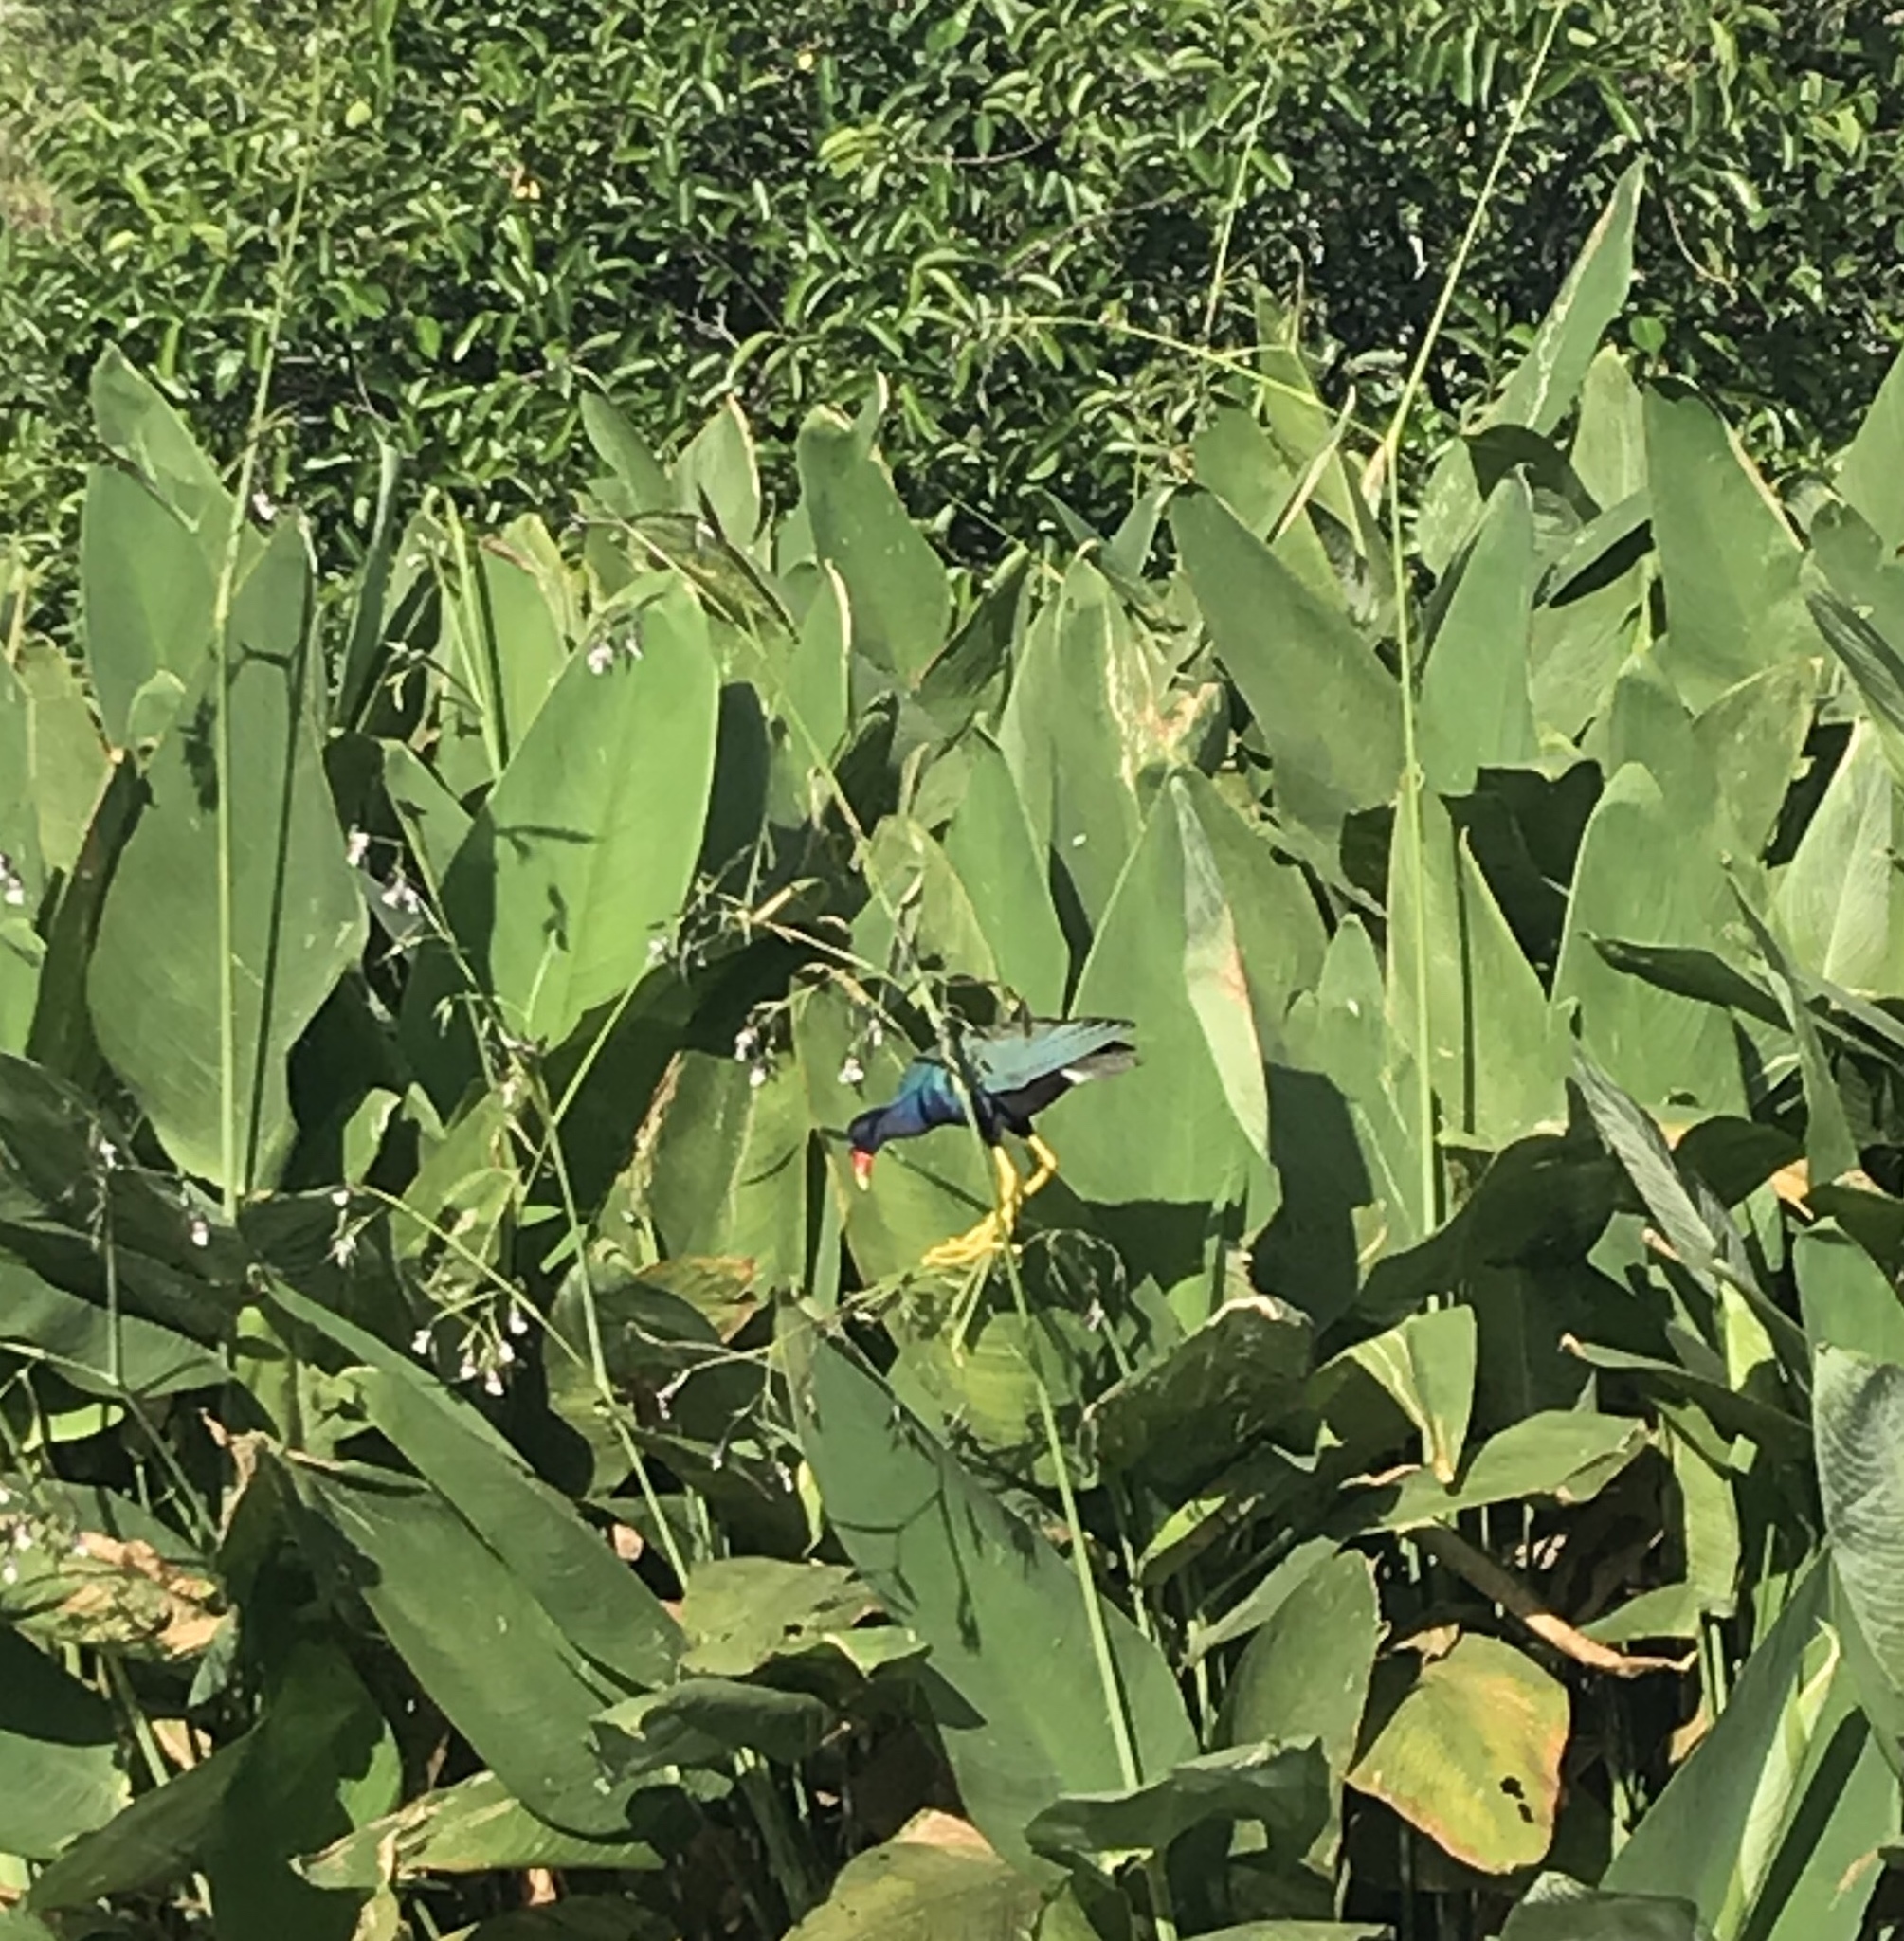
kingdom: Animalia
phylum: Chordata
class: Aves
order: Gruiformes
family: Rallidae
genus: Porphyrio
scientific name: Porphyrio martinica
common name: Purple gallinule
